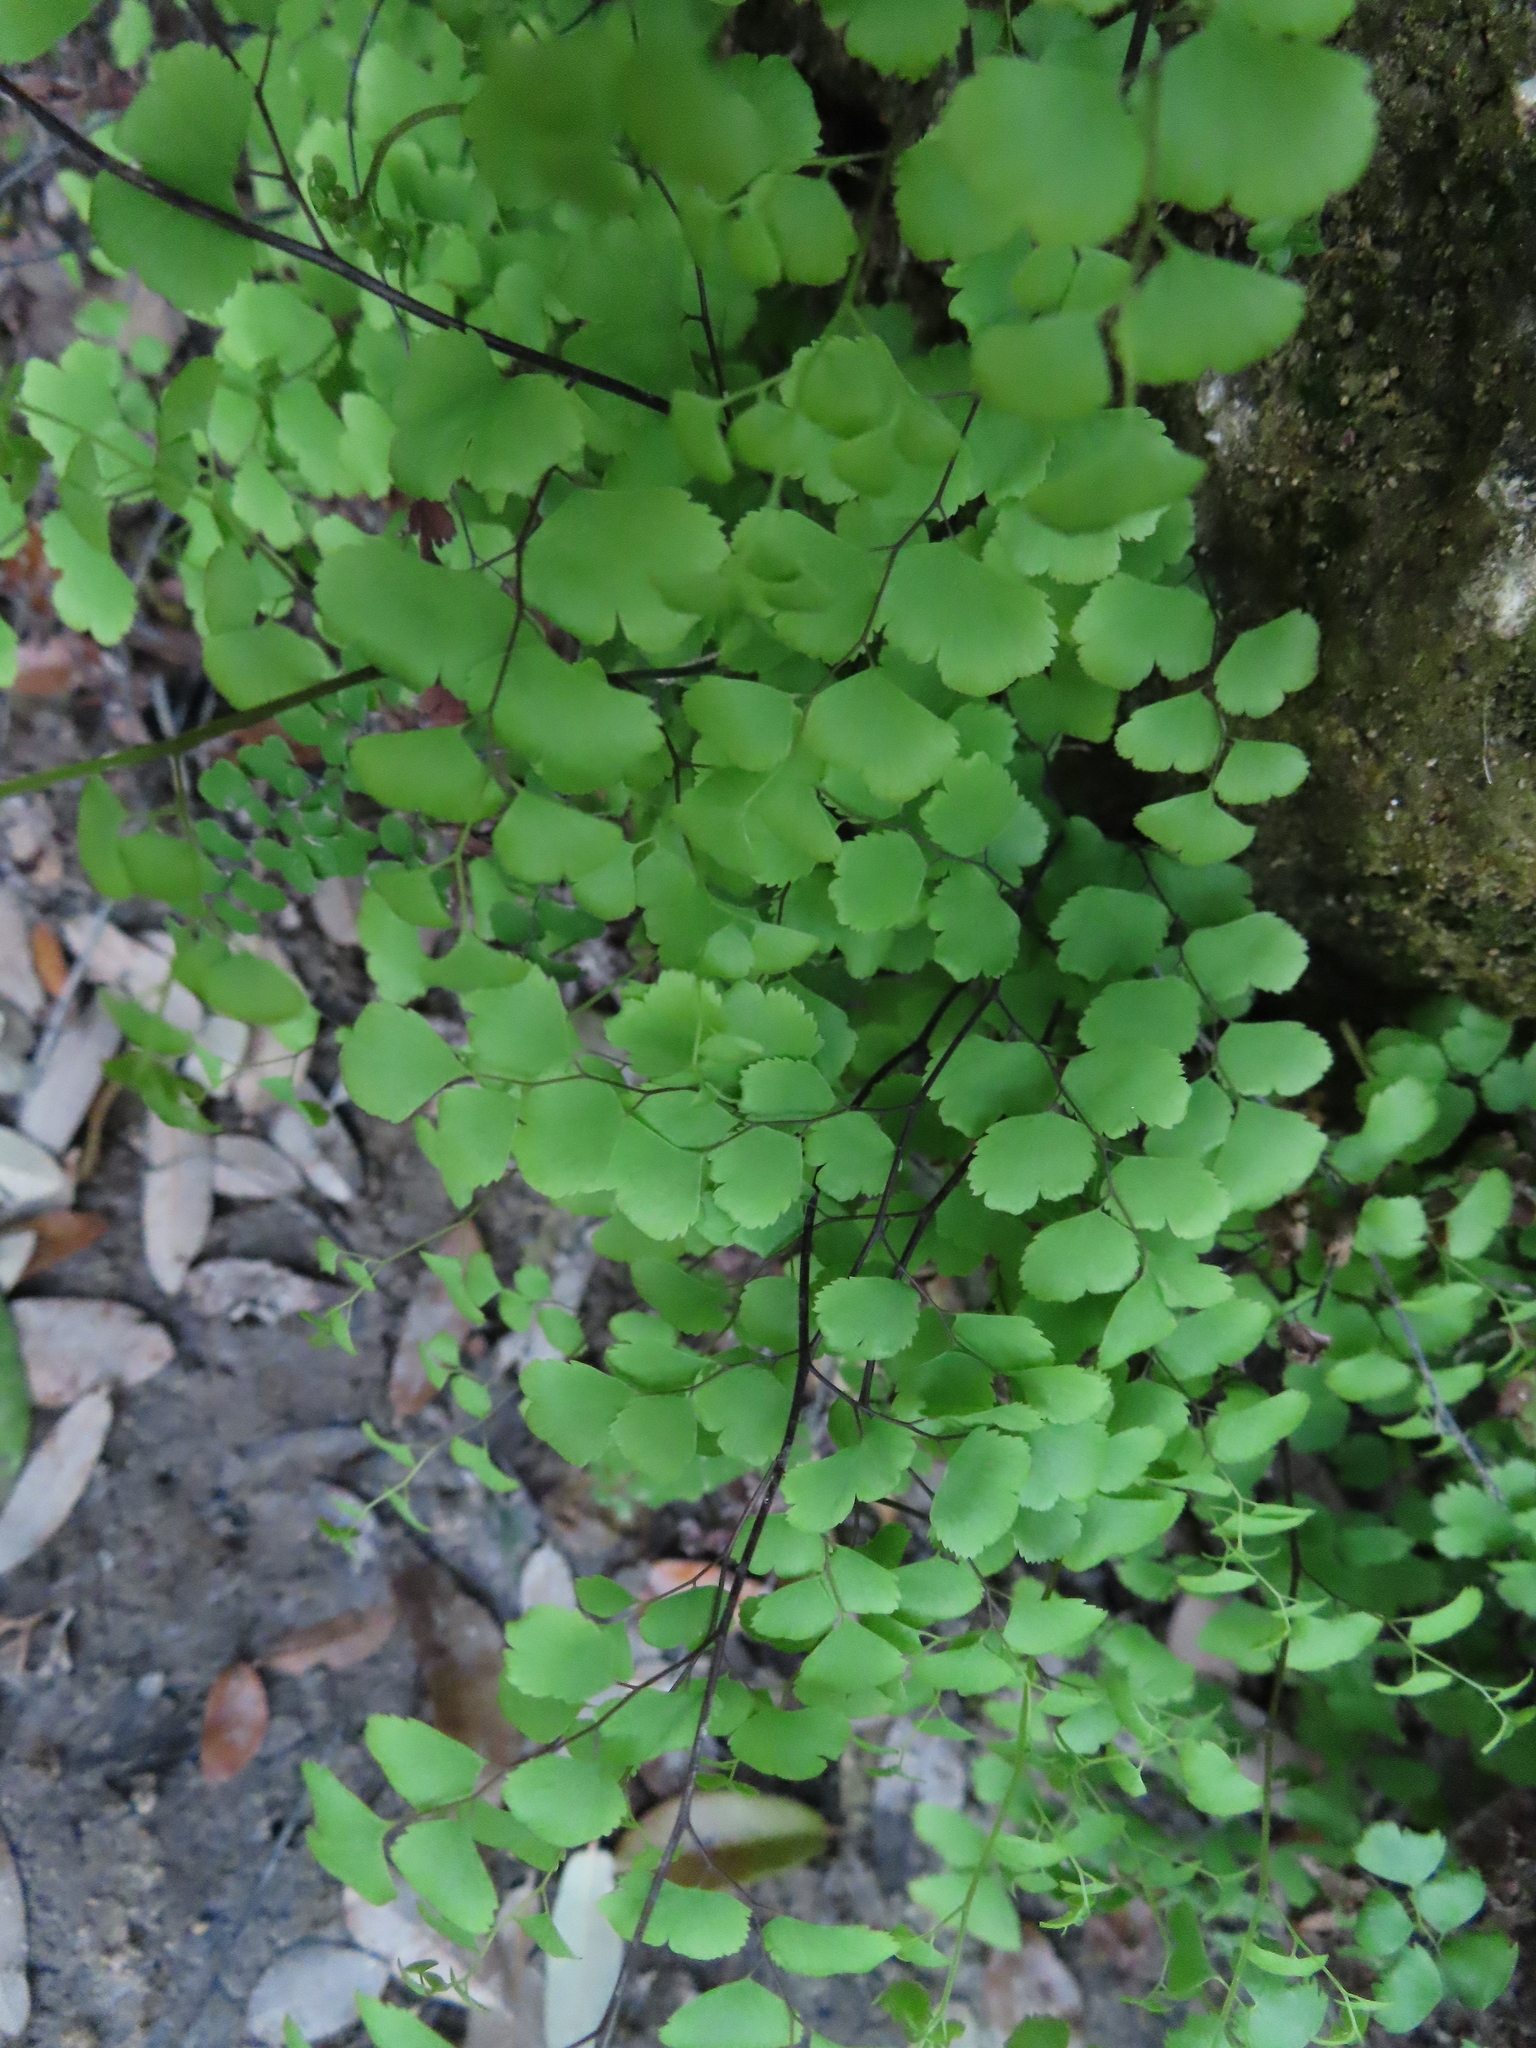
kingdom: Plantae
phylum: Tracheophyta
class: Polypodiopsida
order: Polypodiales
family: Pteridaceae
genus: Adiantum
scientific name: Adiantum capillus-veneris
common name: Maidenhair fern
